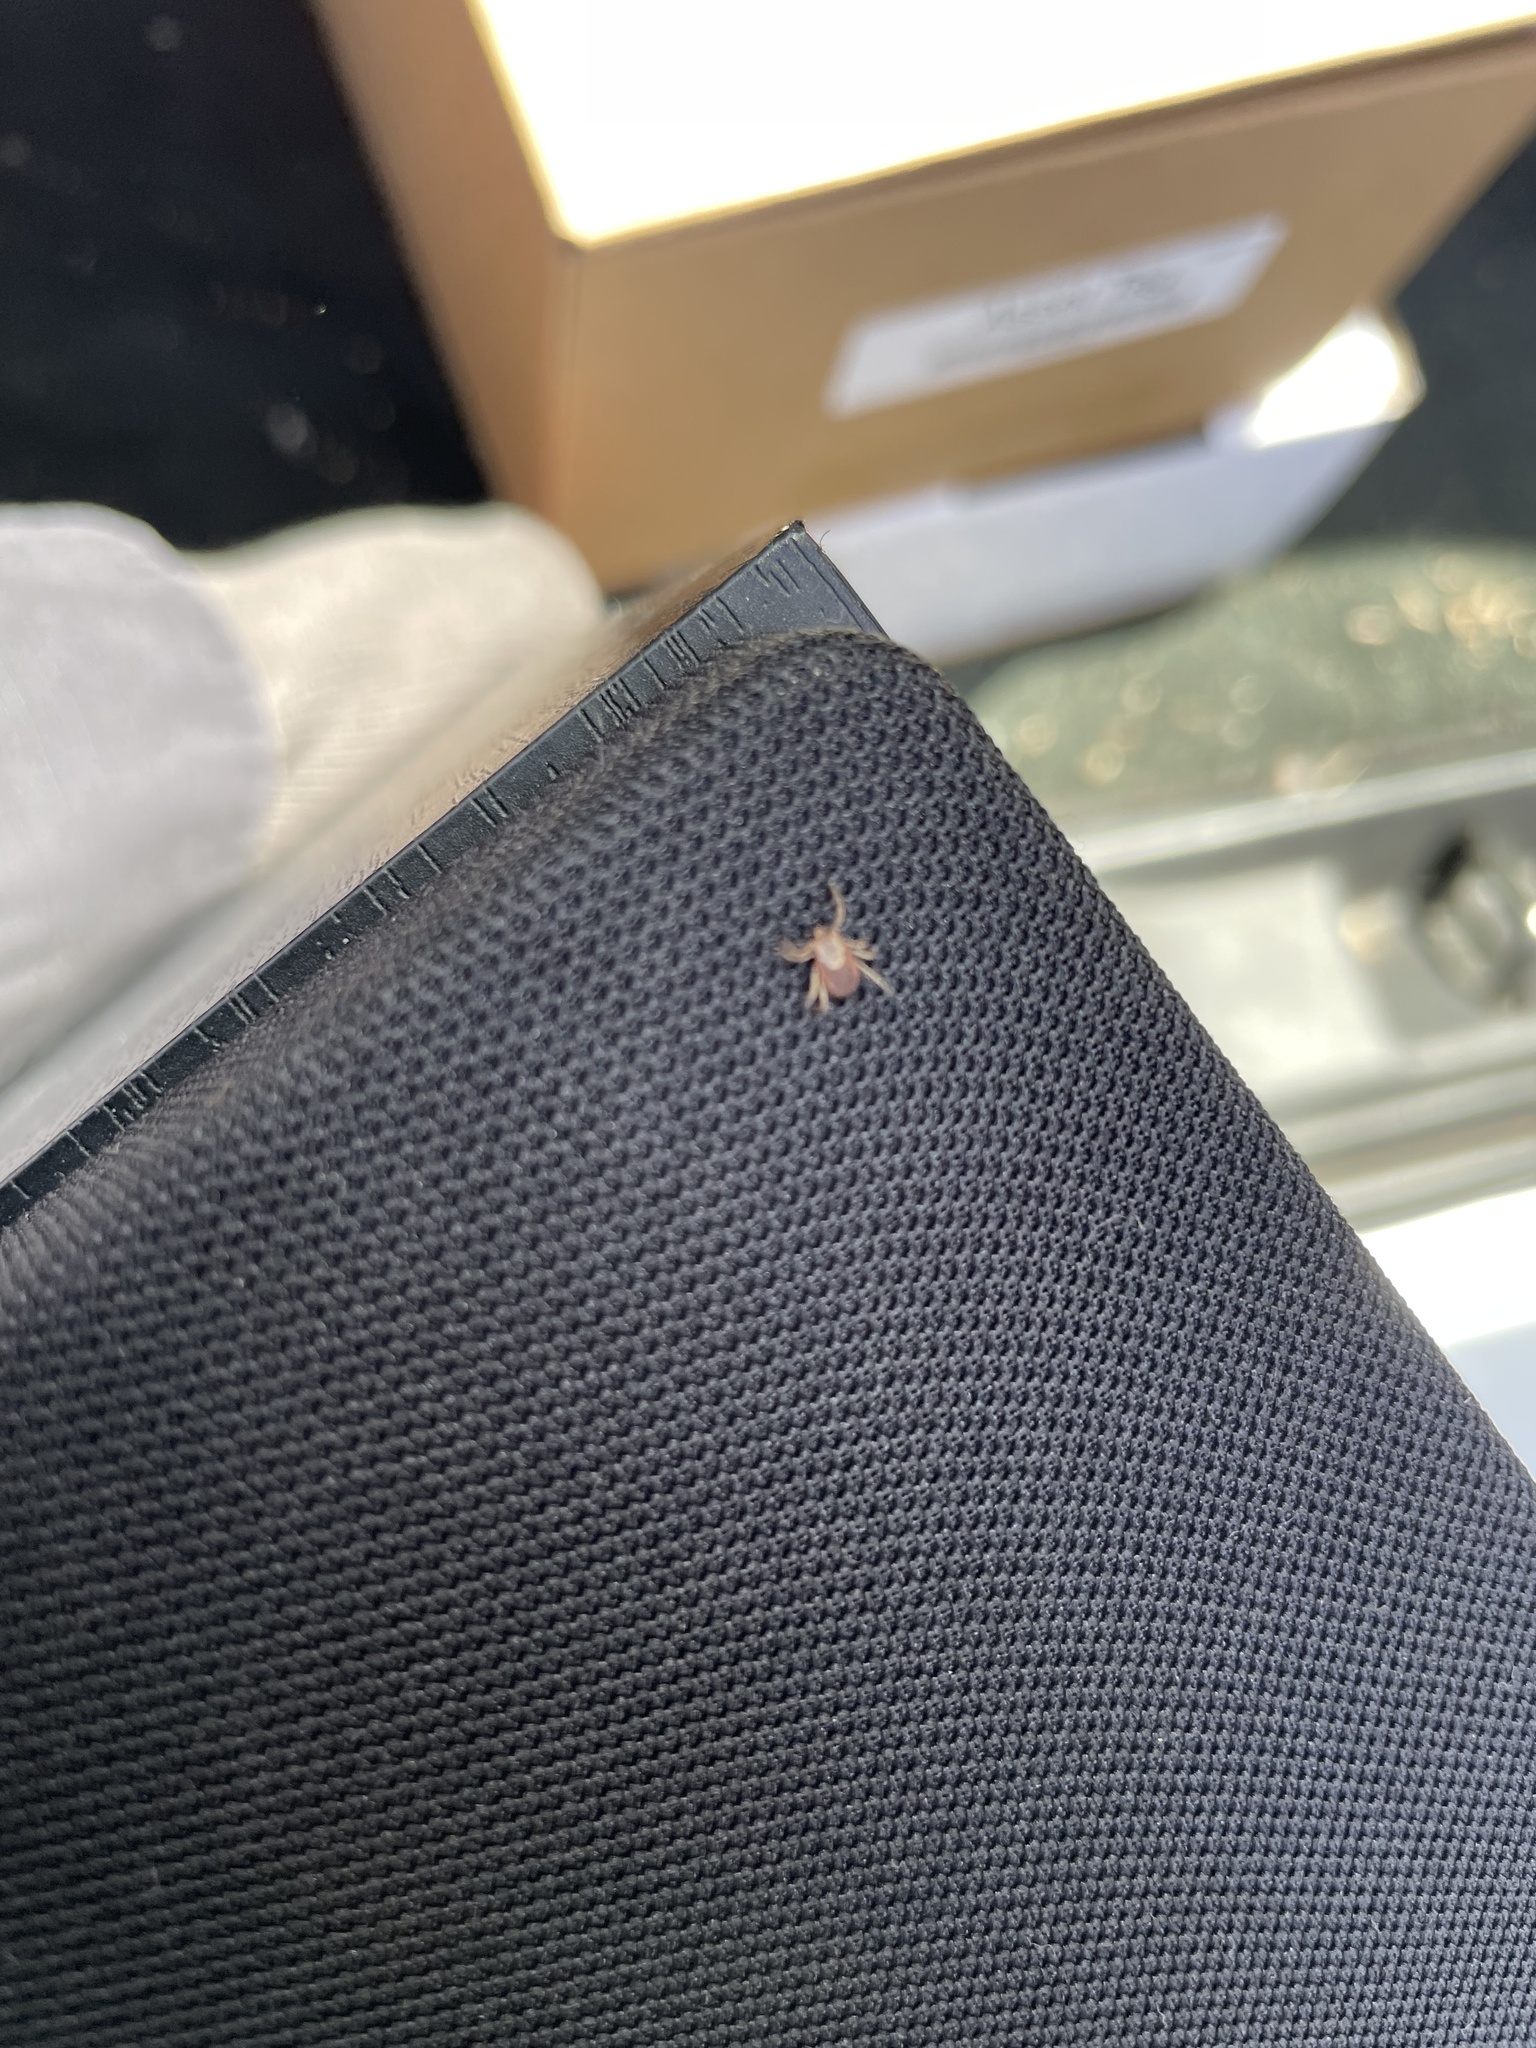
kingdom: Animalia
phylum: Arthropoda
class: Arachnida
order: Ixodida
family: Ixodidae
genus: Dermacentor
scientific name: Dermacentor occidentalis
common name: Net tick
